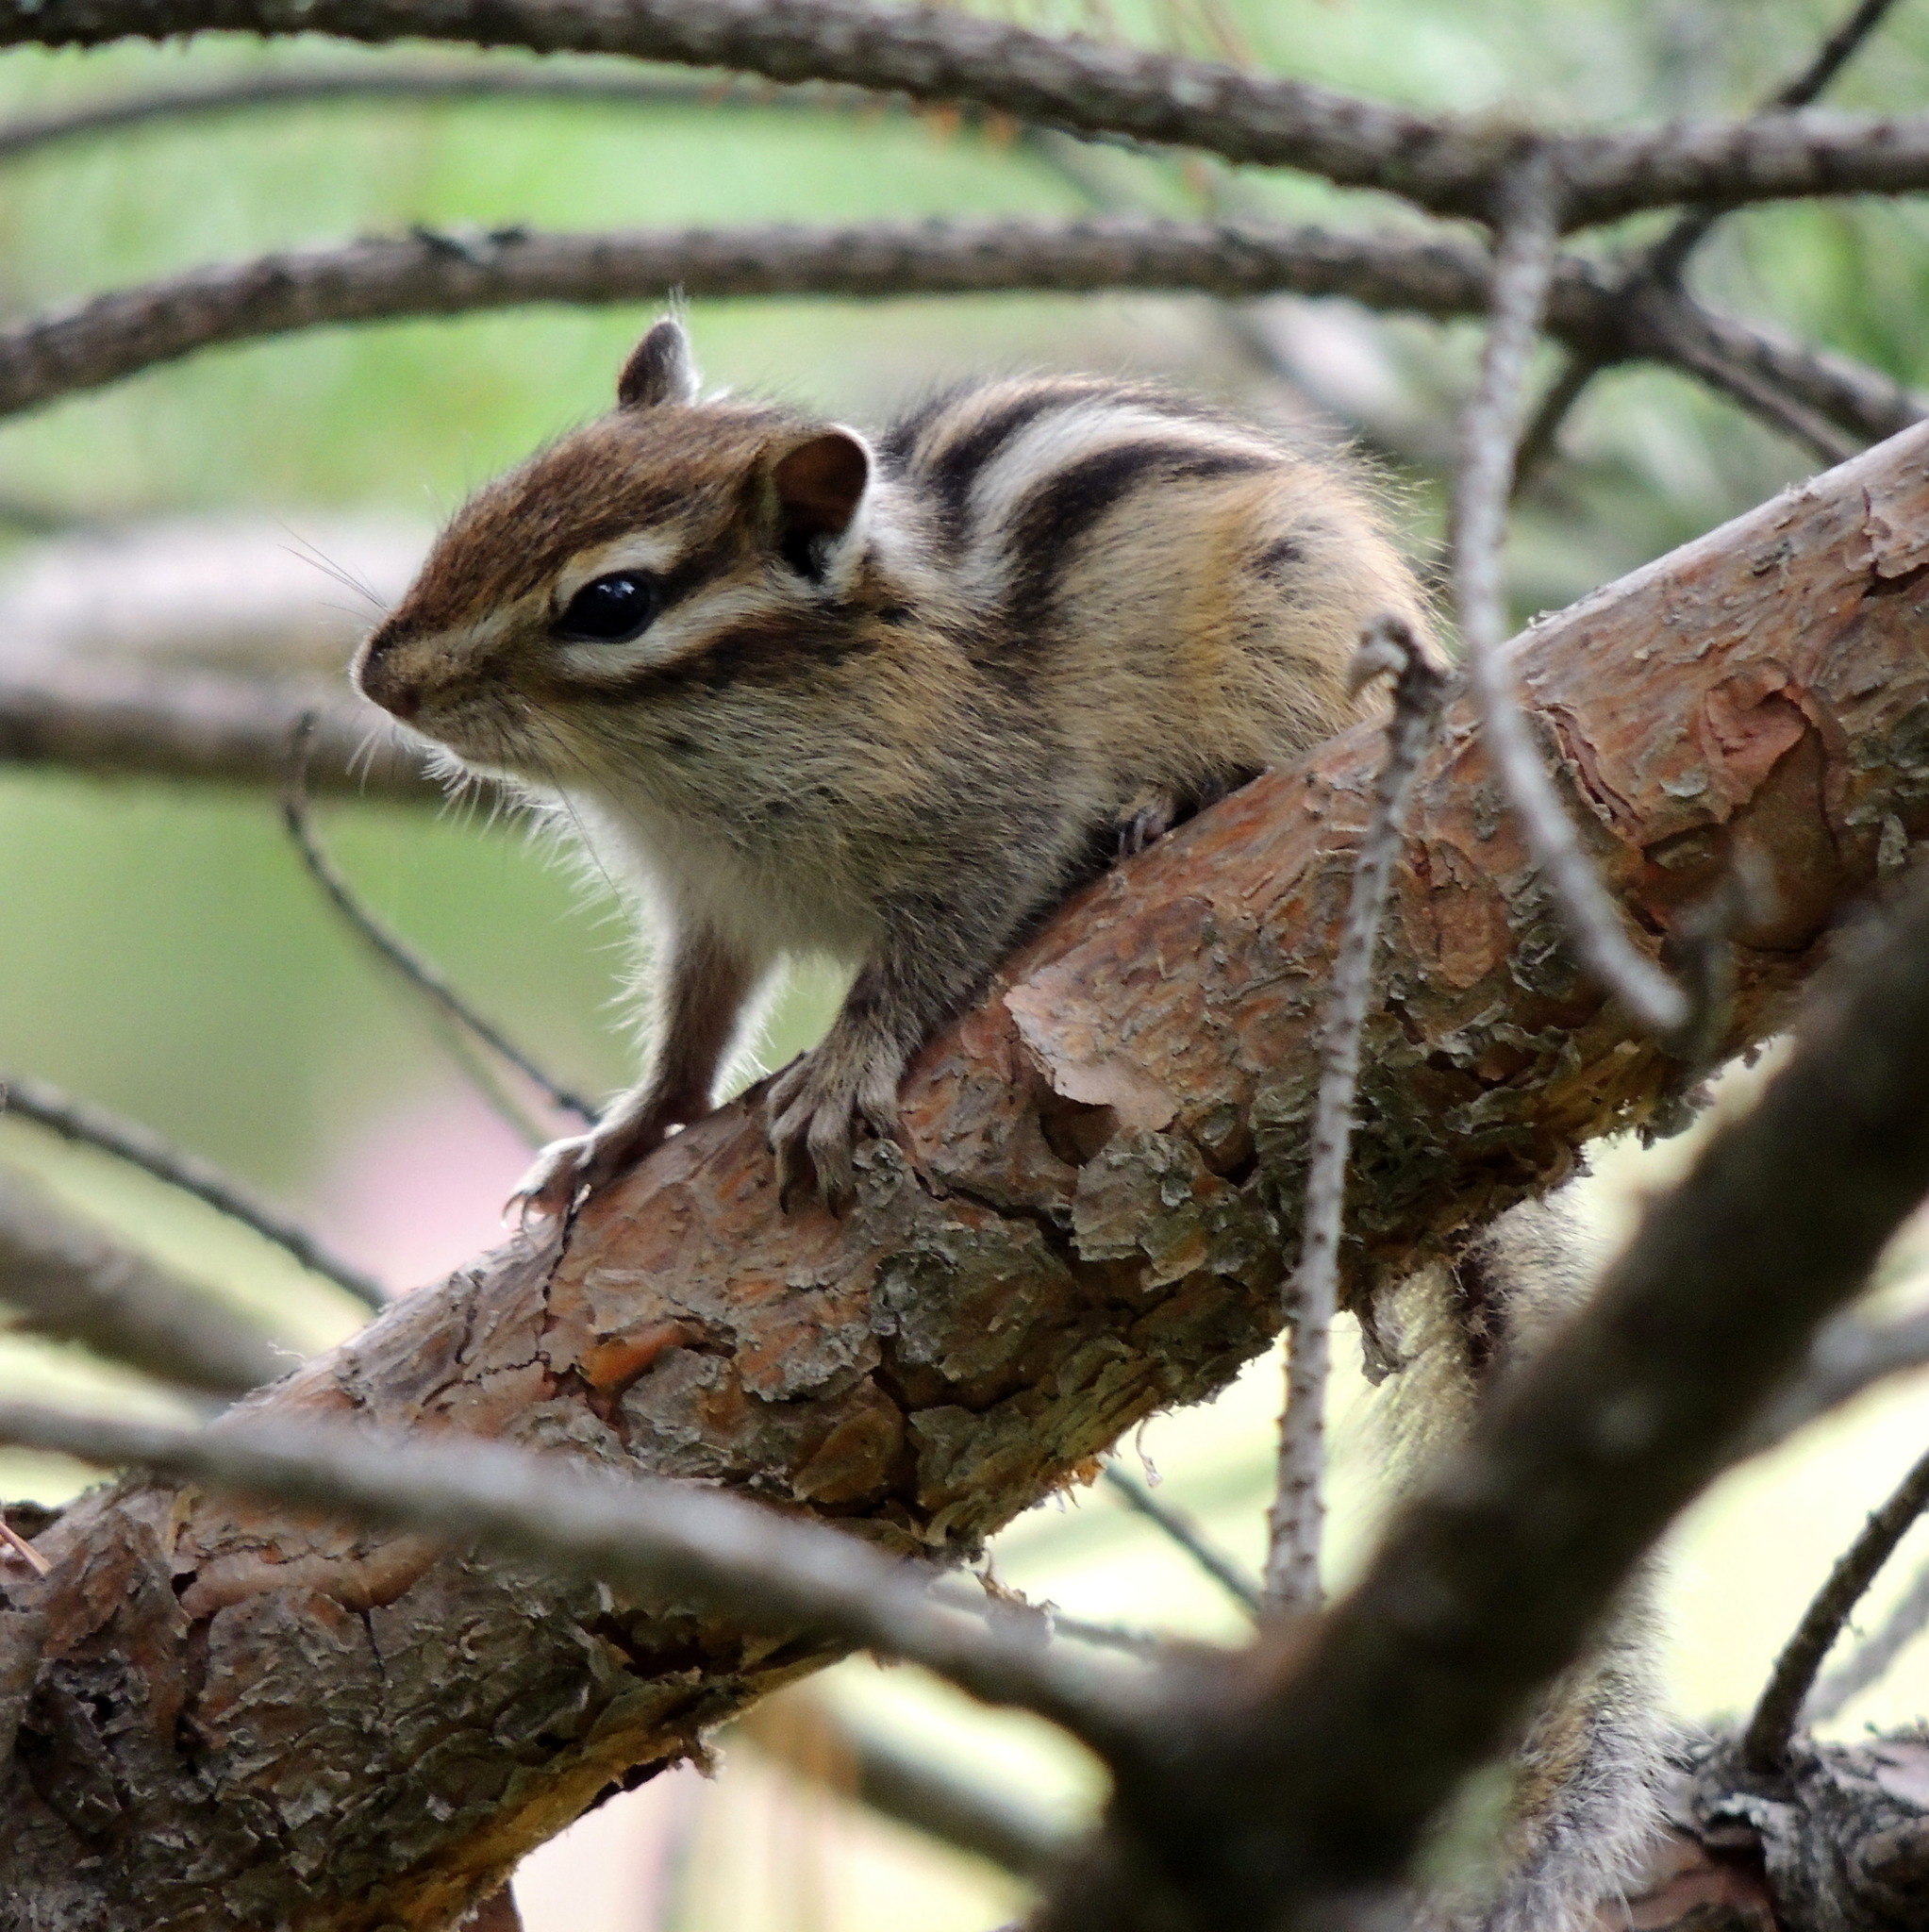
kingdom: Animalia
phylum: Chordata
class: Mammalia
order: Rodentia
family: Sciuridae
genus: Tamias
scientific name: Tamias sibiricus
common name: Siberian chipmunk
